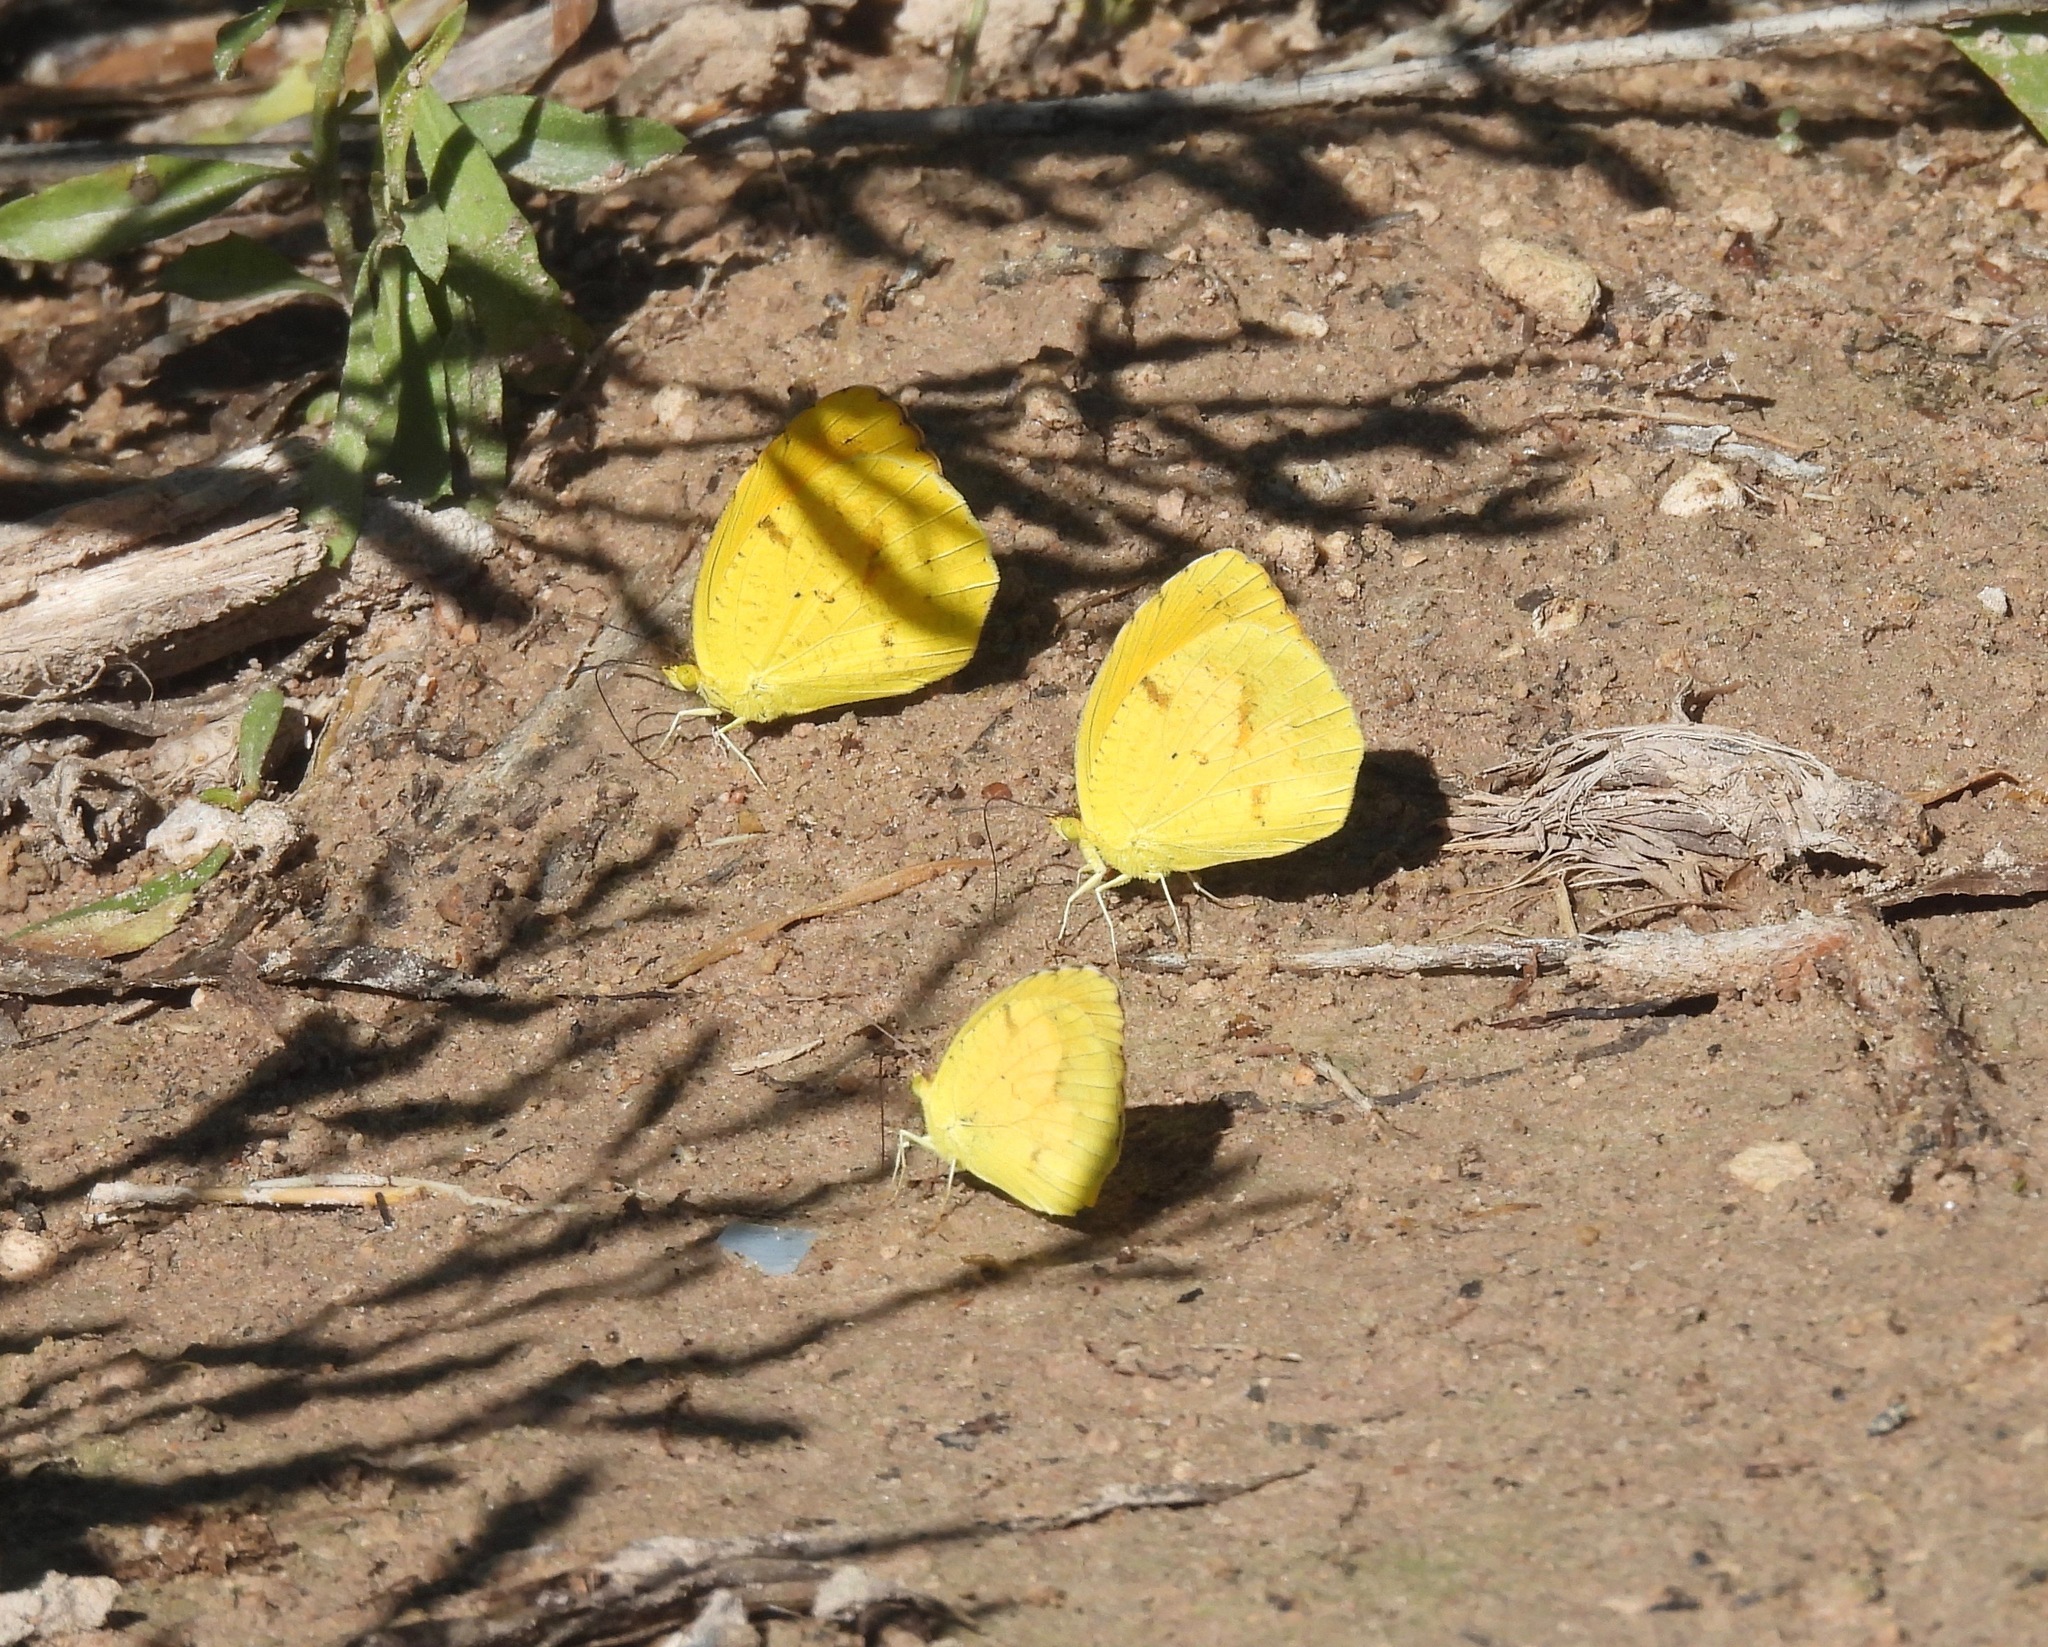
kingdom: Animalia
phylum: Arthropoda
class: Insecta
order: Lepidoptera
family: Pieridae
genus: Abaeis
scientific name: Abaeis nicippe
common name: Sleepy orange
